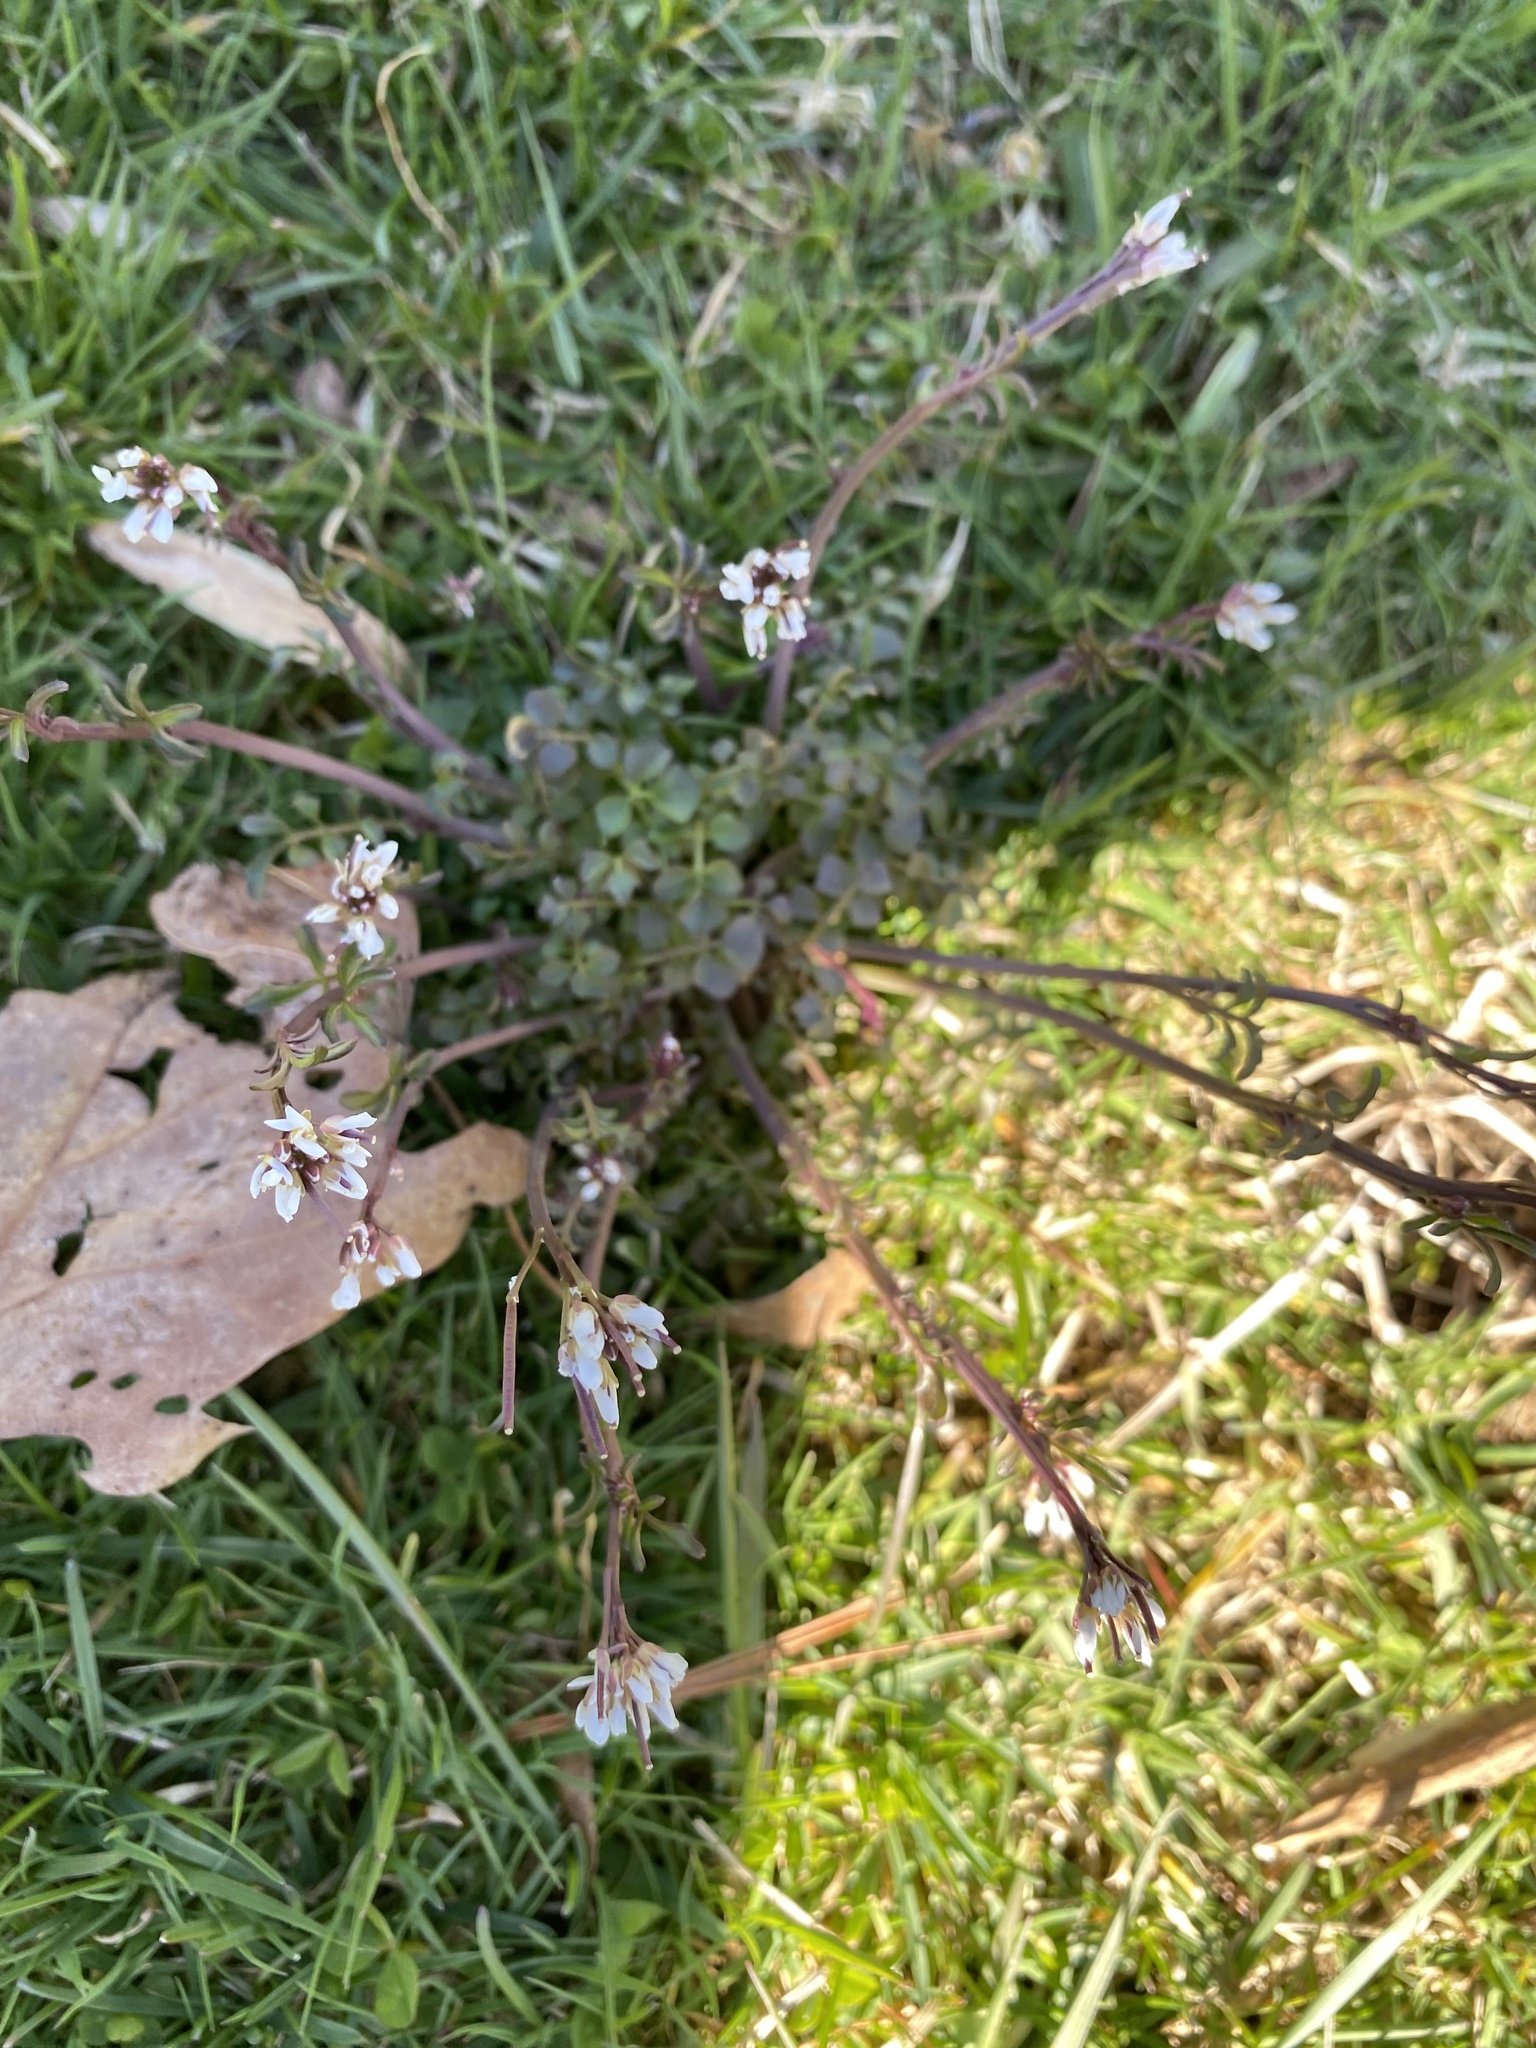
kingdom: Plantae
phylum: Tracheophyta
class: Magnoliopsida
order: Brassicales
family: Brassicaceae
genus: Cardamine
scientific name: Cardamine hirsuta
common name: Hairy bittercress
